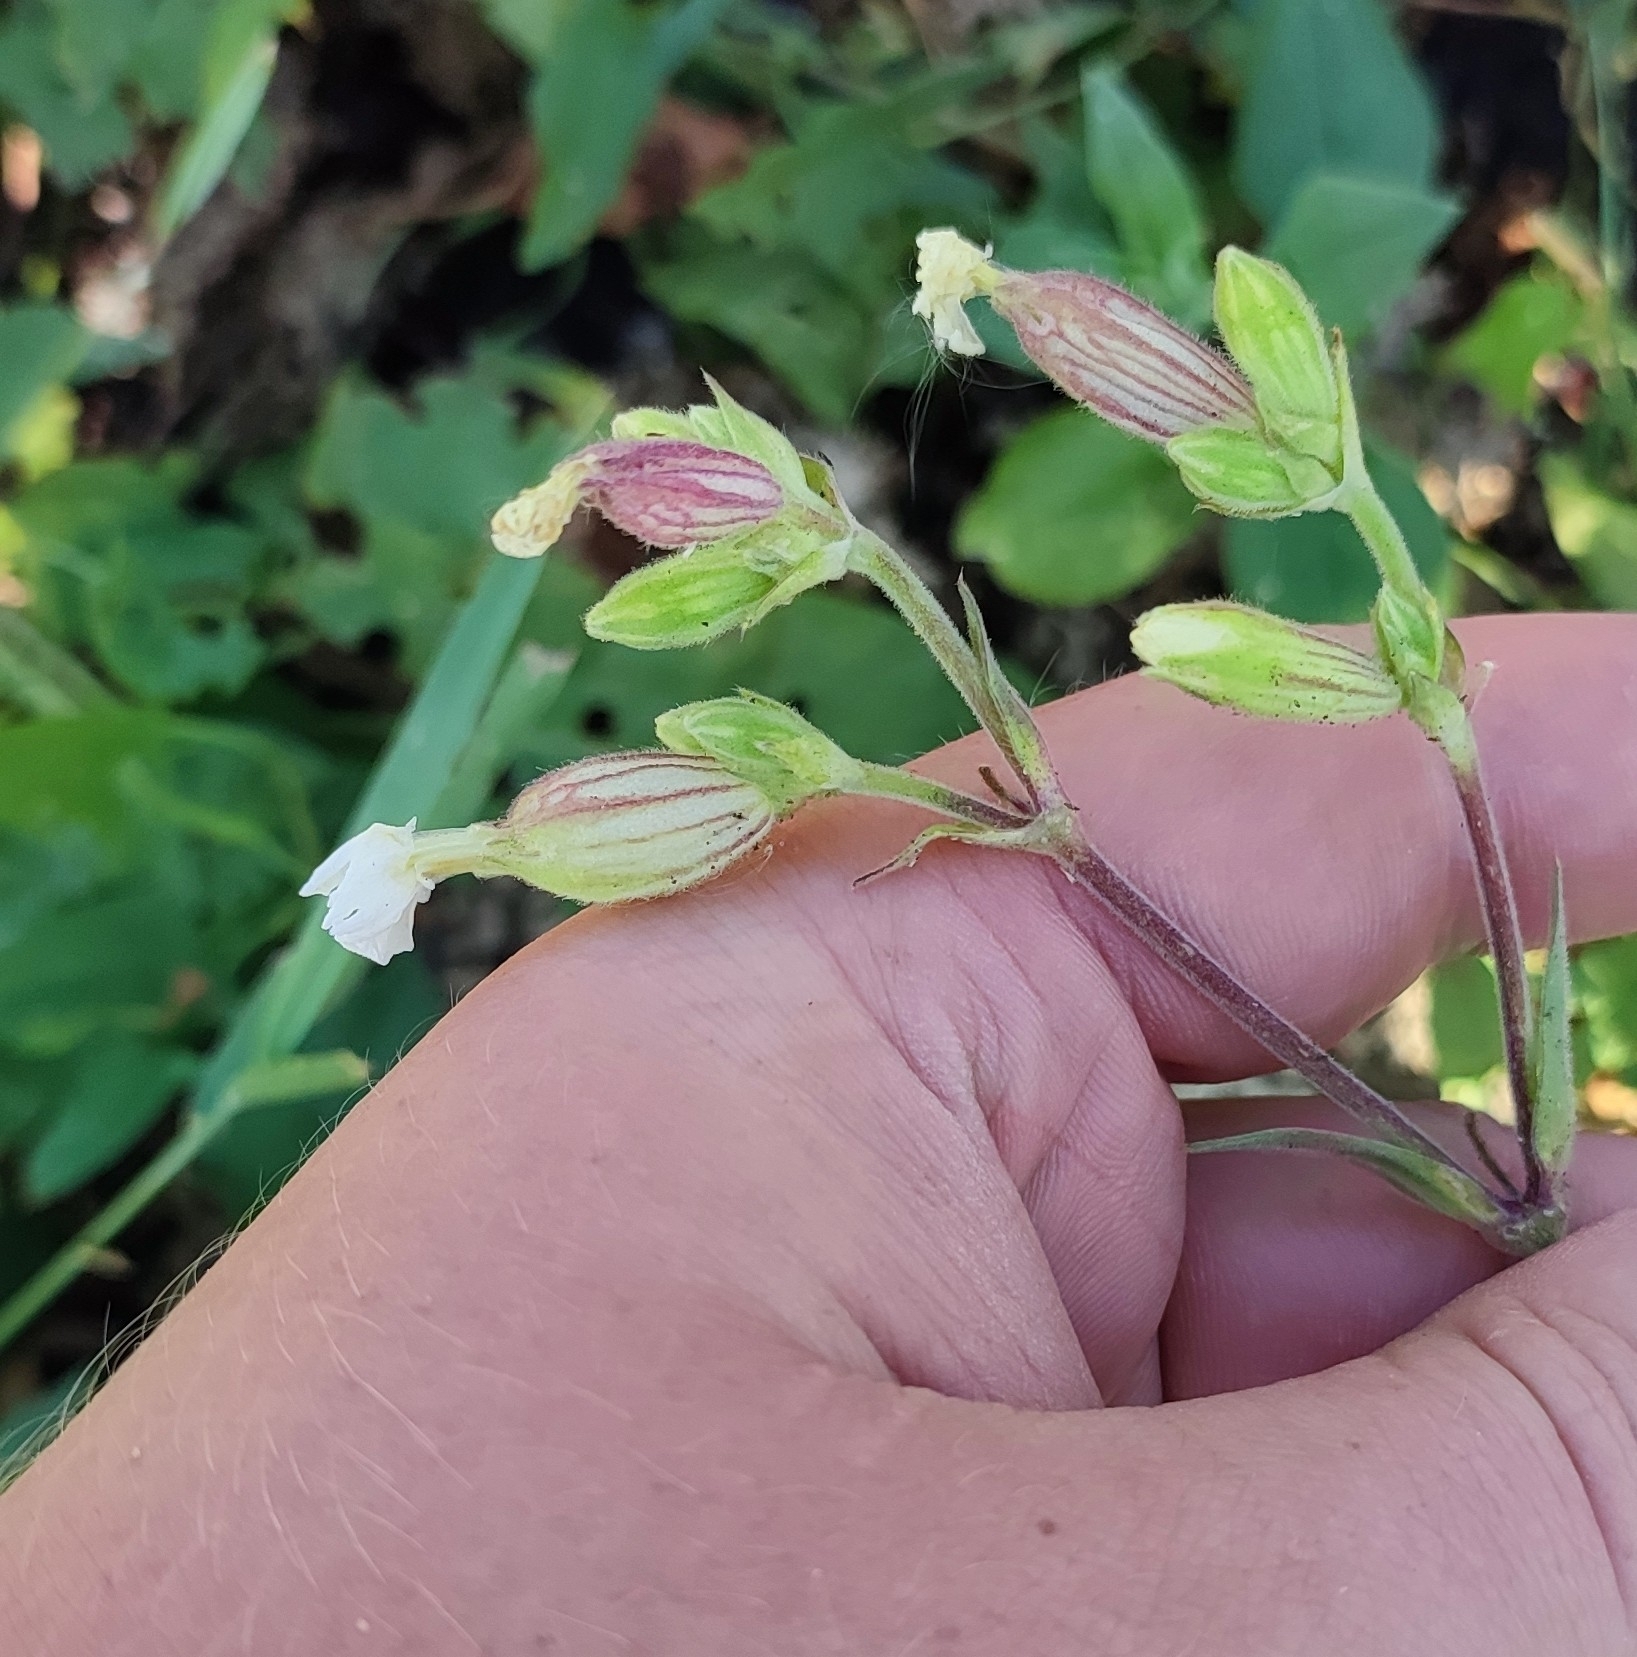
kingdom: Plantae
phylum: Tracheophyta
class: Magnoliopsida
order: Caryophyllales
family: Caryophyllaceae
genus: Silene
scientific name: Silene latifolia
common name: White campion
